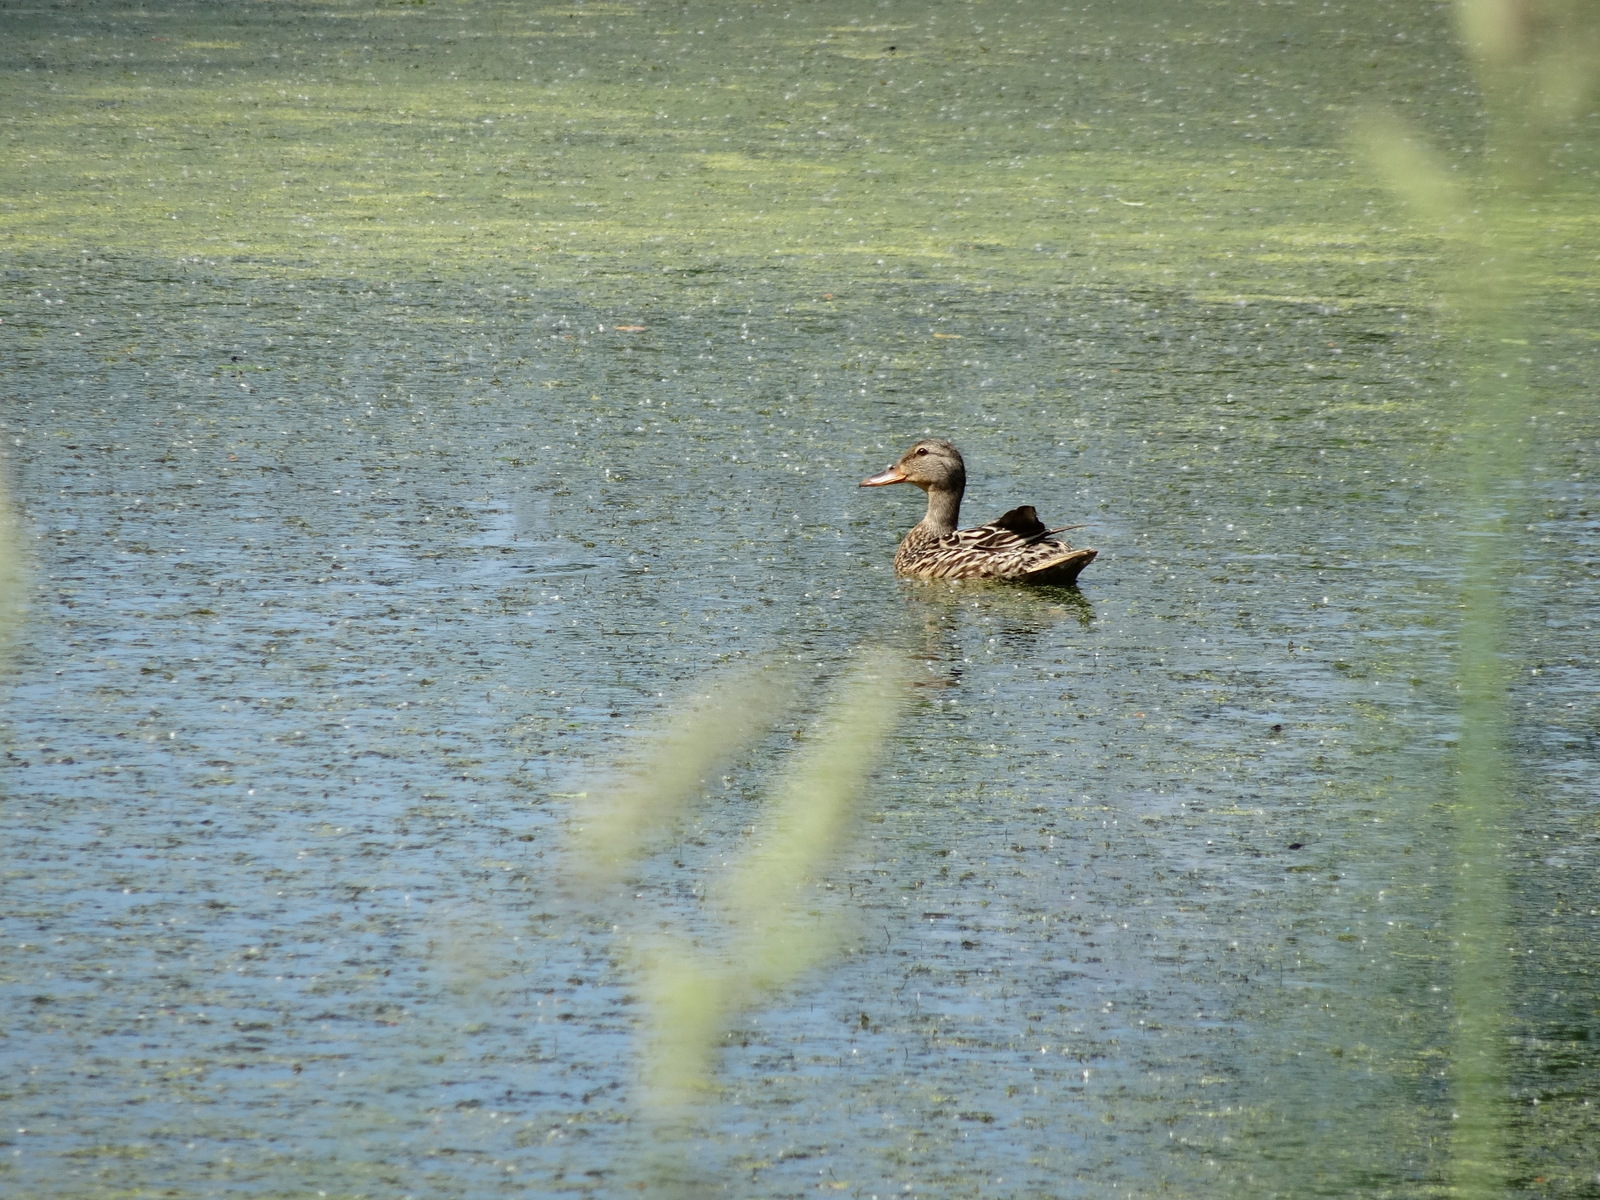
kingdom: Animalia
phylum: Chordata
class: Aves
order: Anseriformes
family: Anatidae
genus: Anas
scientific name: Anas platyrhynchos
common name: Mallard
